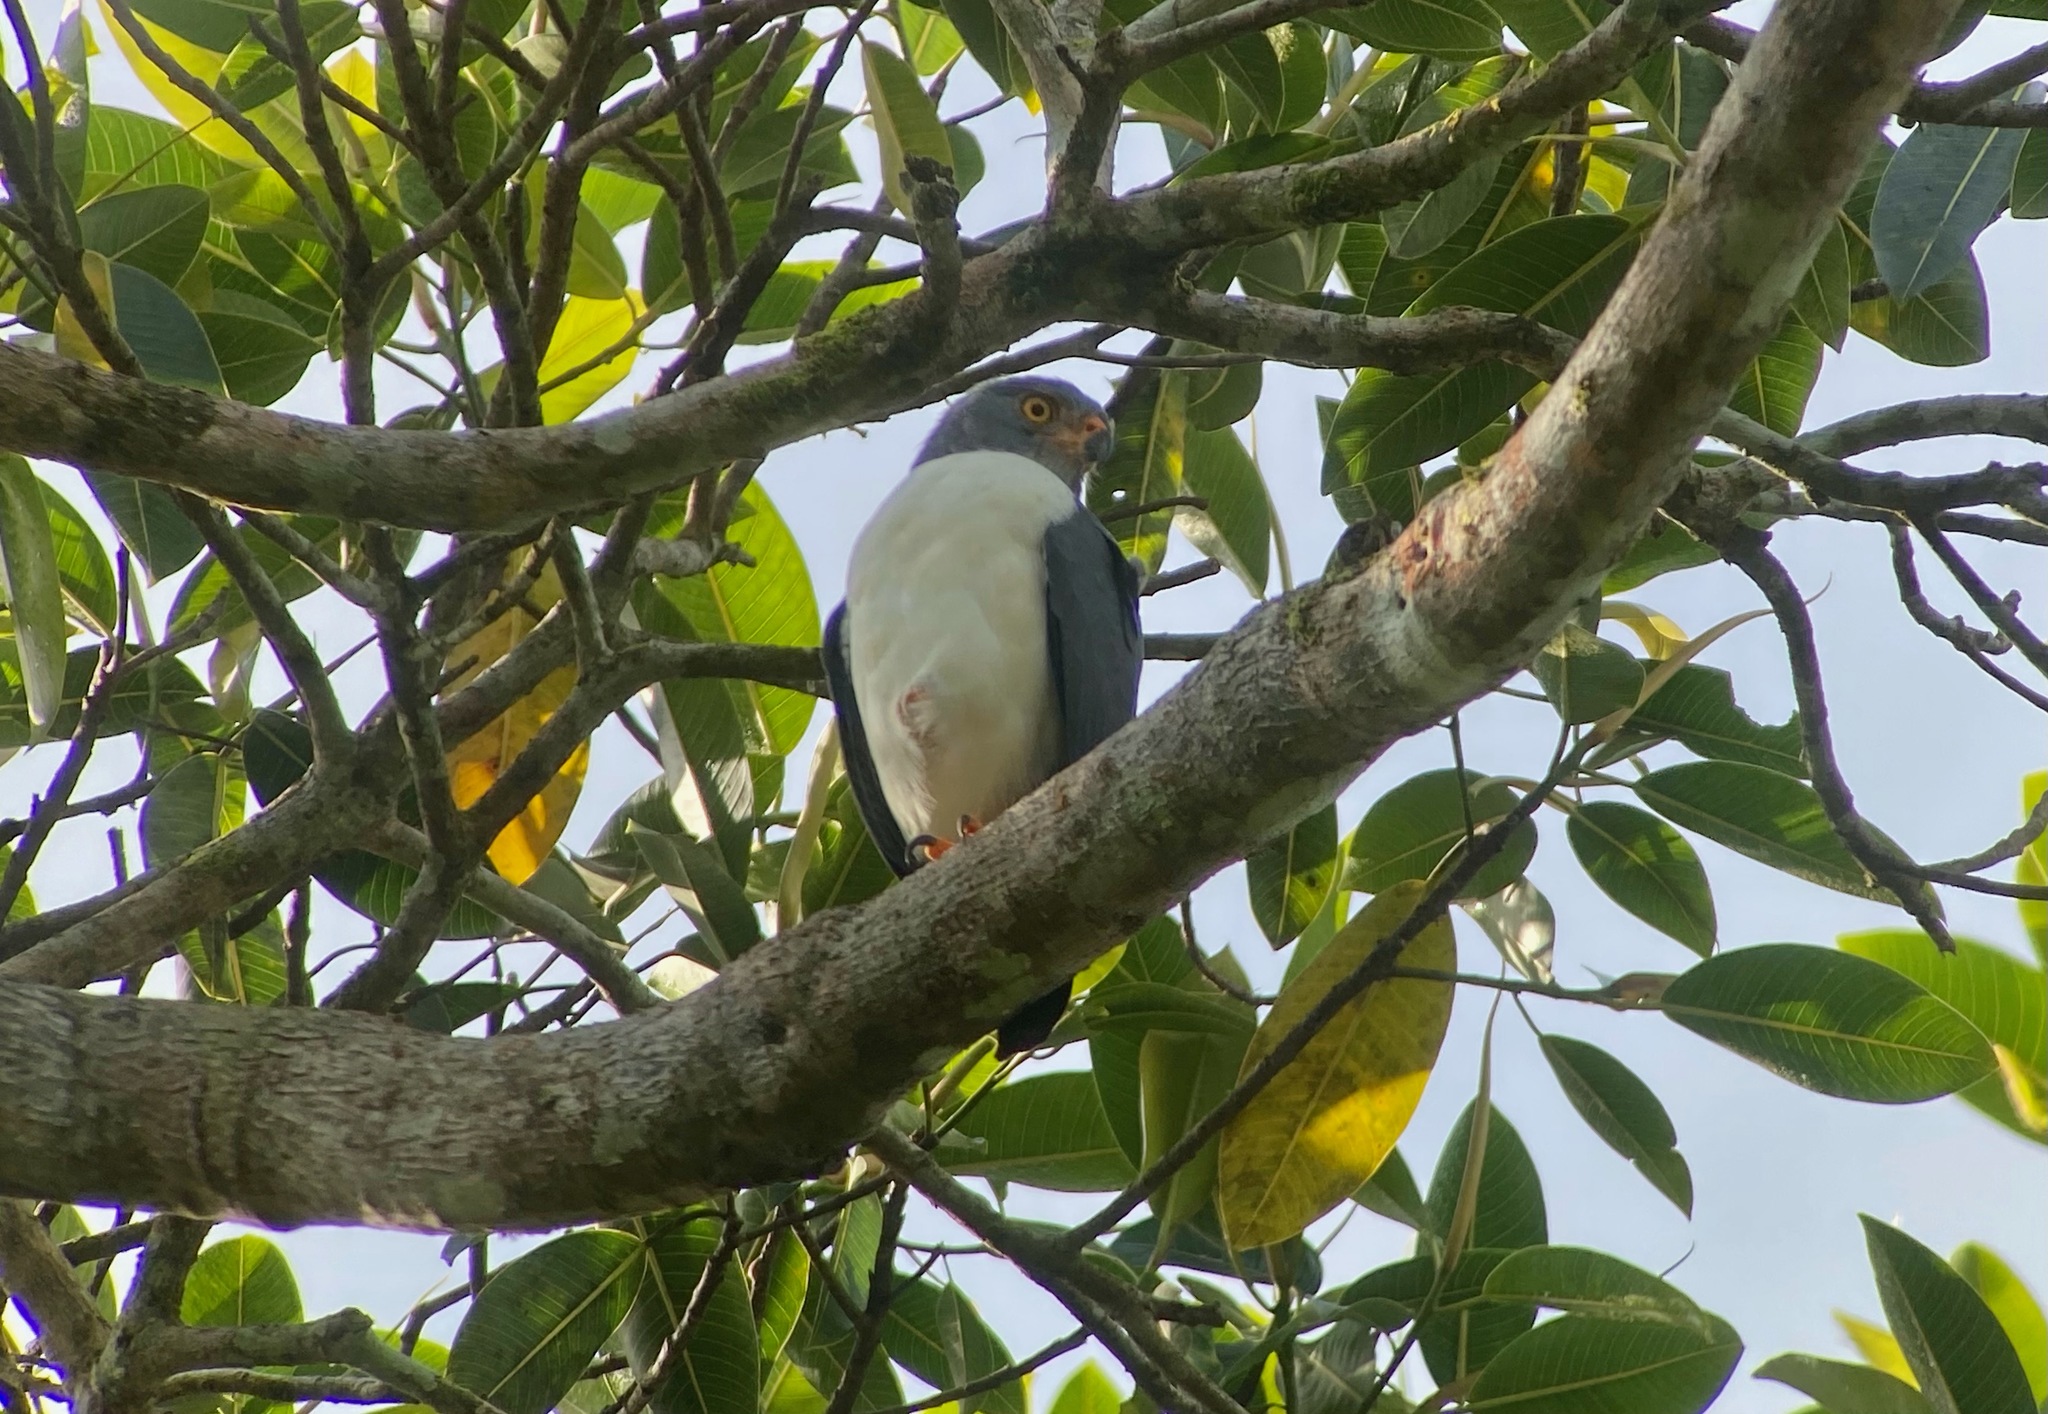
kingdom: Animalia
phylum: Chordata
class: Aves
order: Accipitriformes
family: Accipitridae
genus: Leucopternis
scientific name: Leucopternis semiplumbeus
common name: Semiplumbeous hawk
